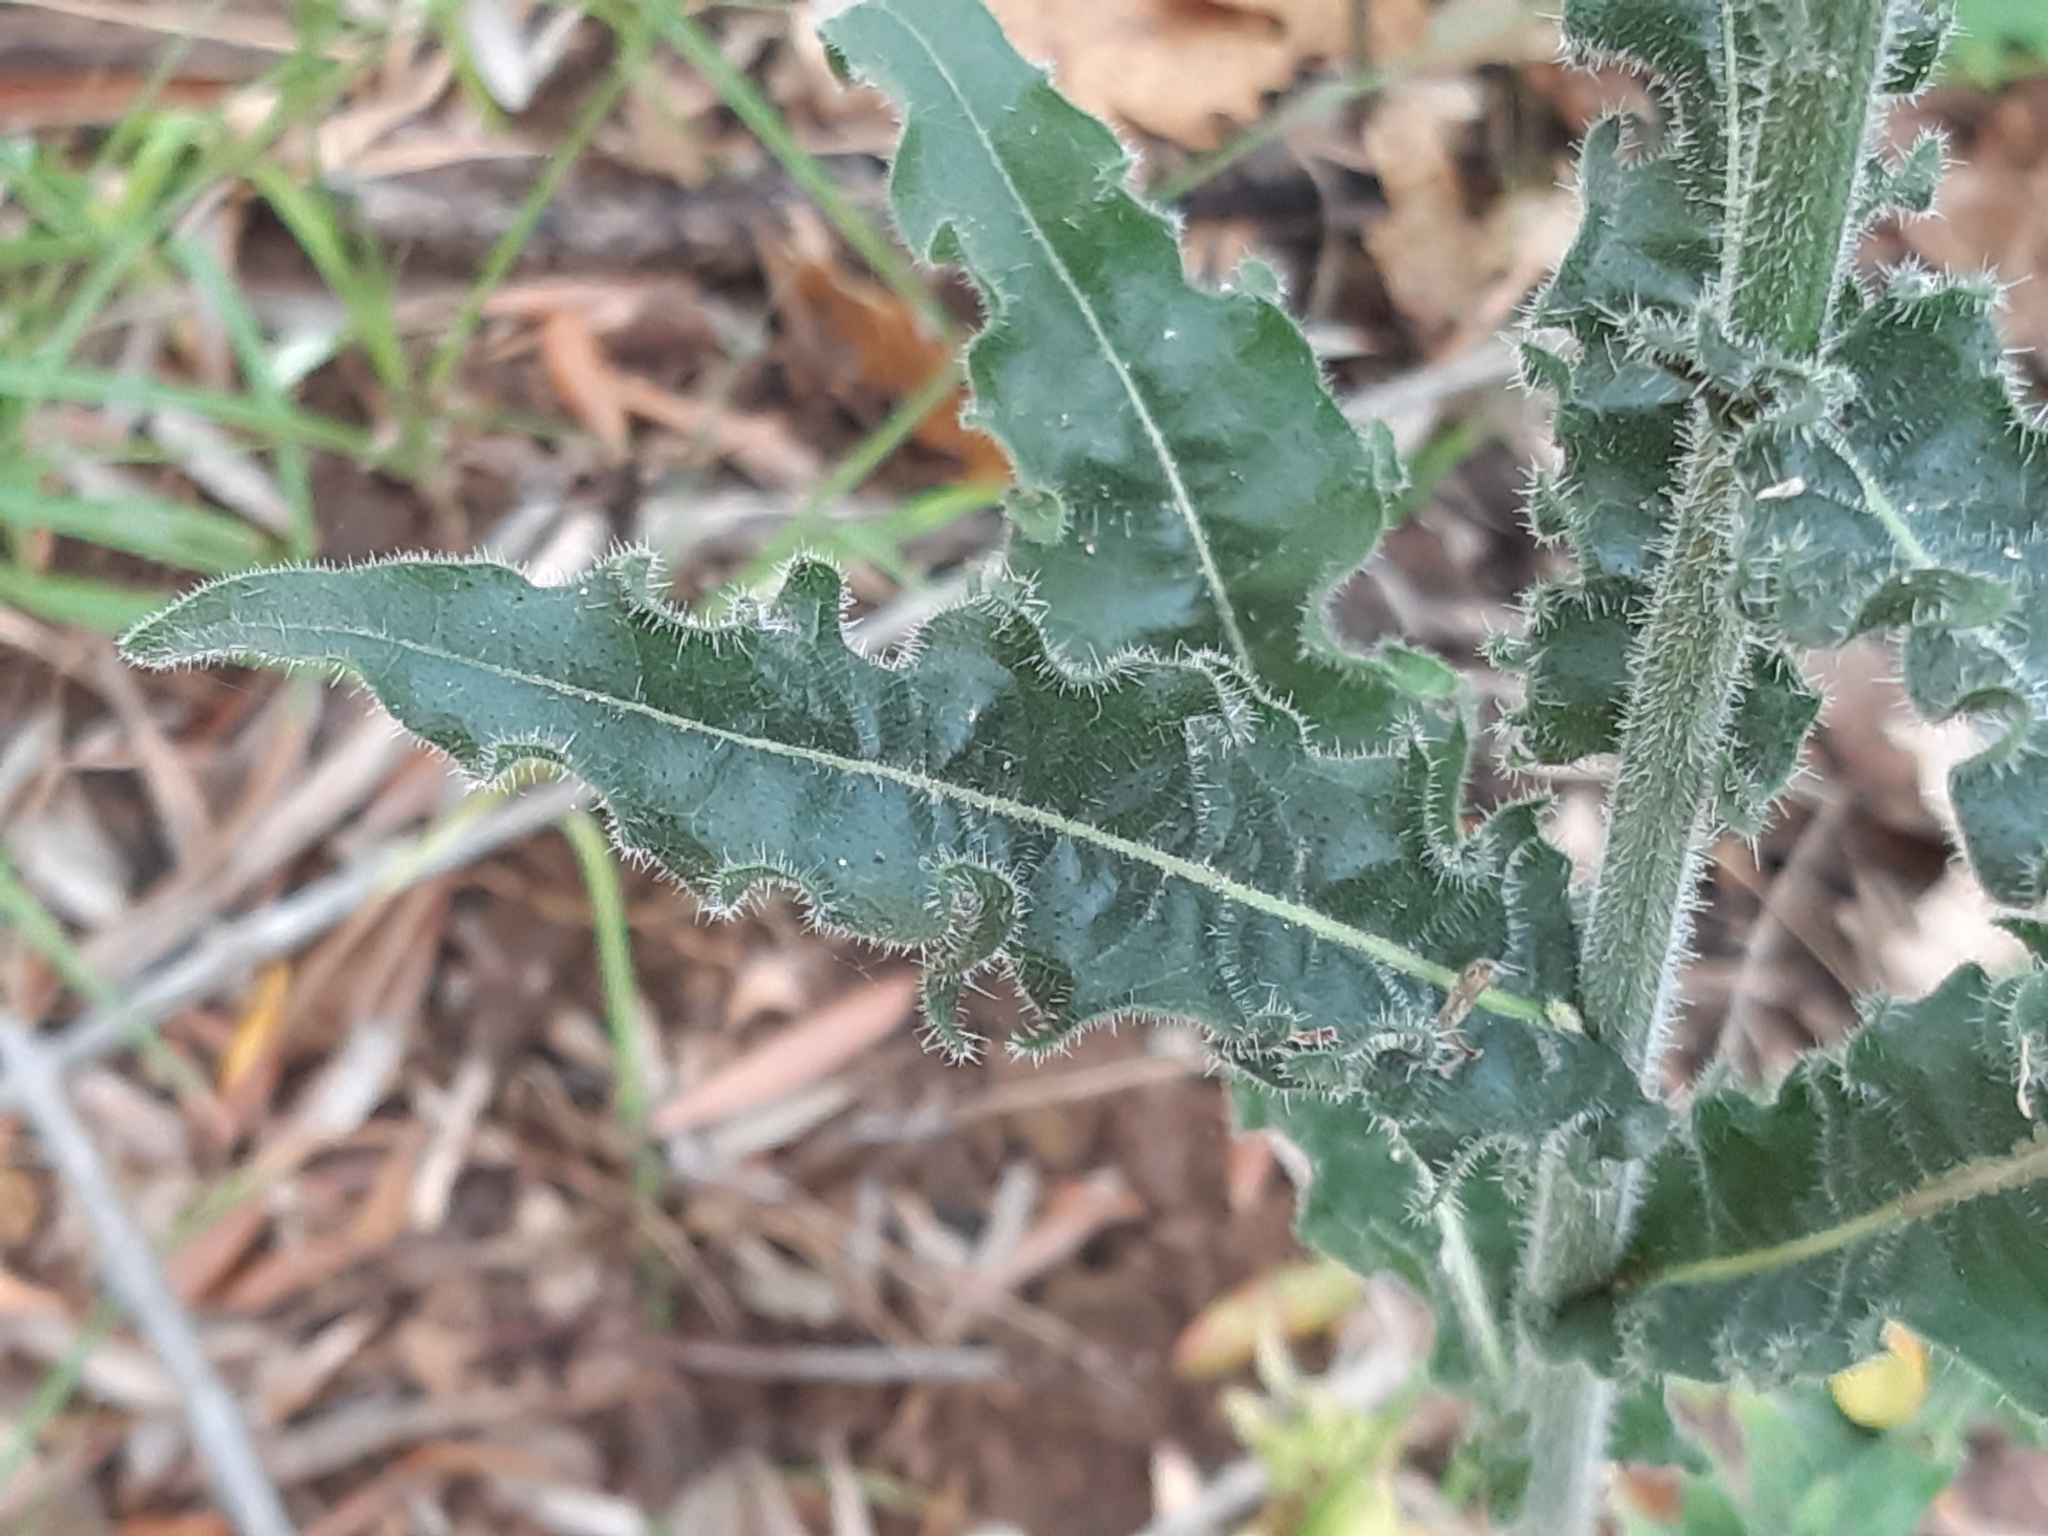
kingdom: Plantae
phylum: Tracheophyta
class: Magnoliopsida
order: Asterales
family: Asteraceae
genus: Picris
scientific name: Picris hieracioides
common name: Hawkweed oxtongue
